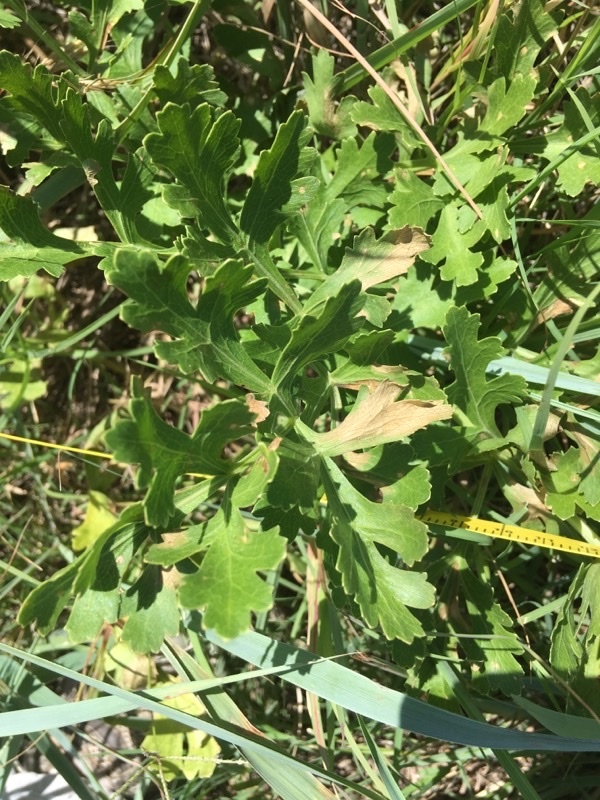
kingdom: Plantae
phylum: Tracheophyta
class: Magnoliopsida
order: Apiales
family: Apiaceae
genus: Polytaenia
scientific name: Polytaenia nuttallii
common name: Prairie-parsley
